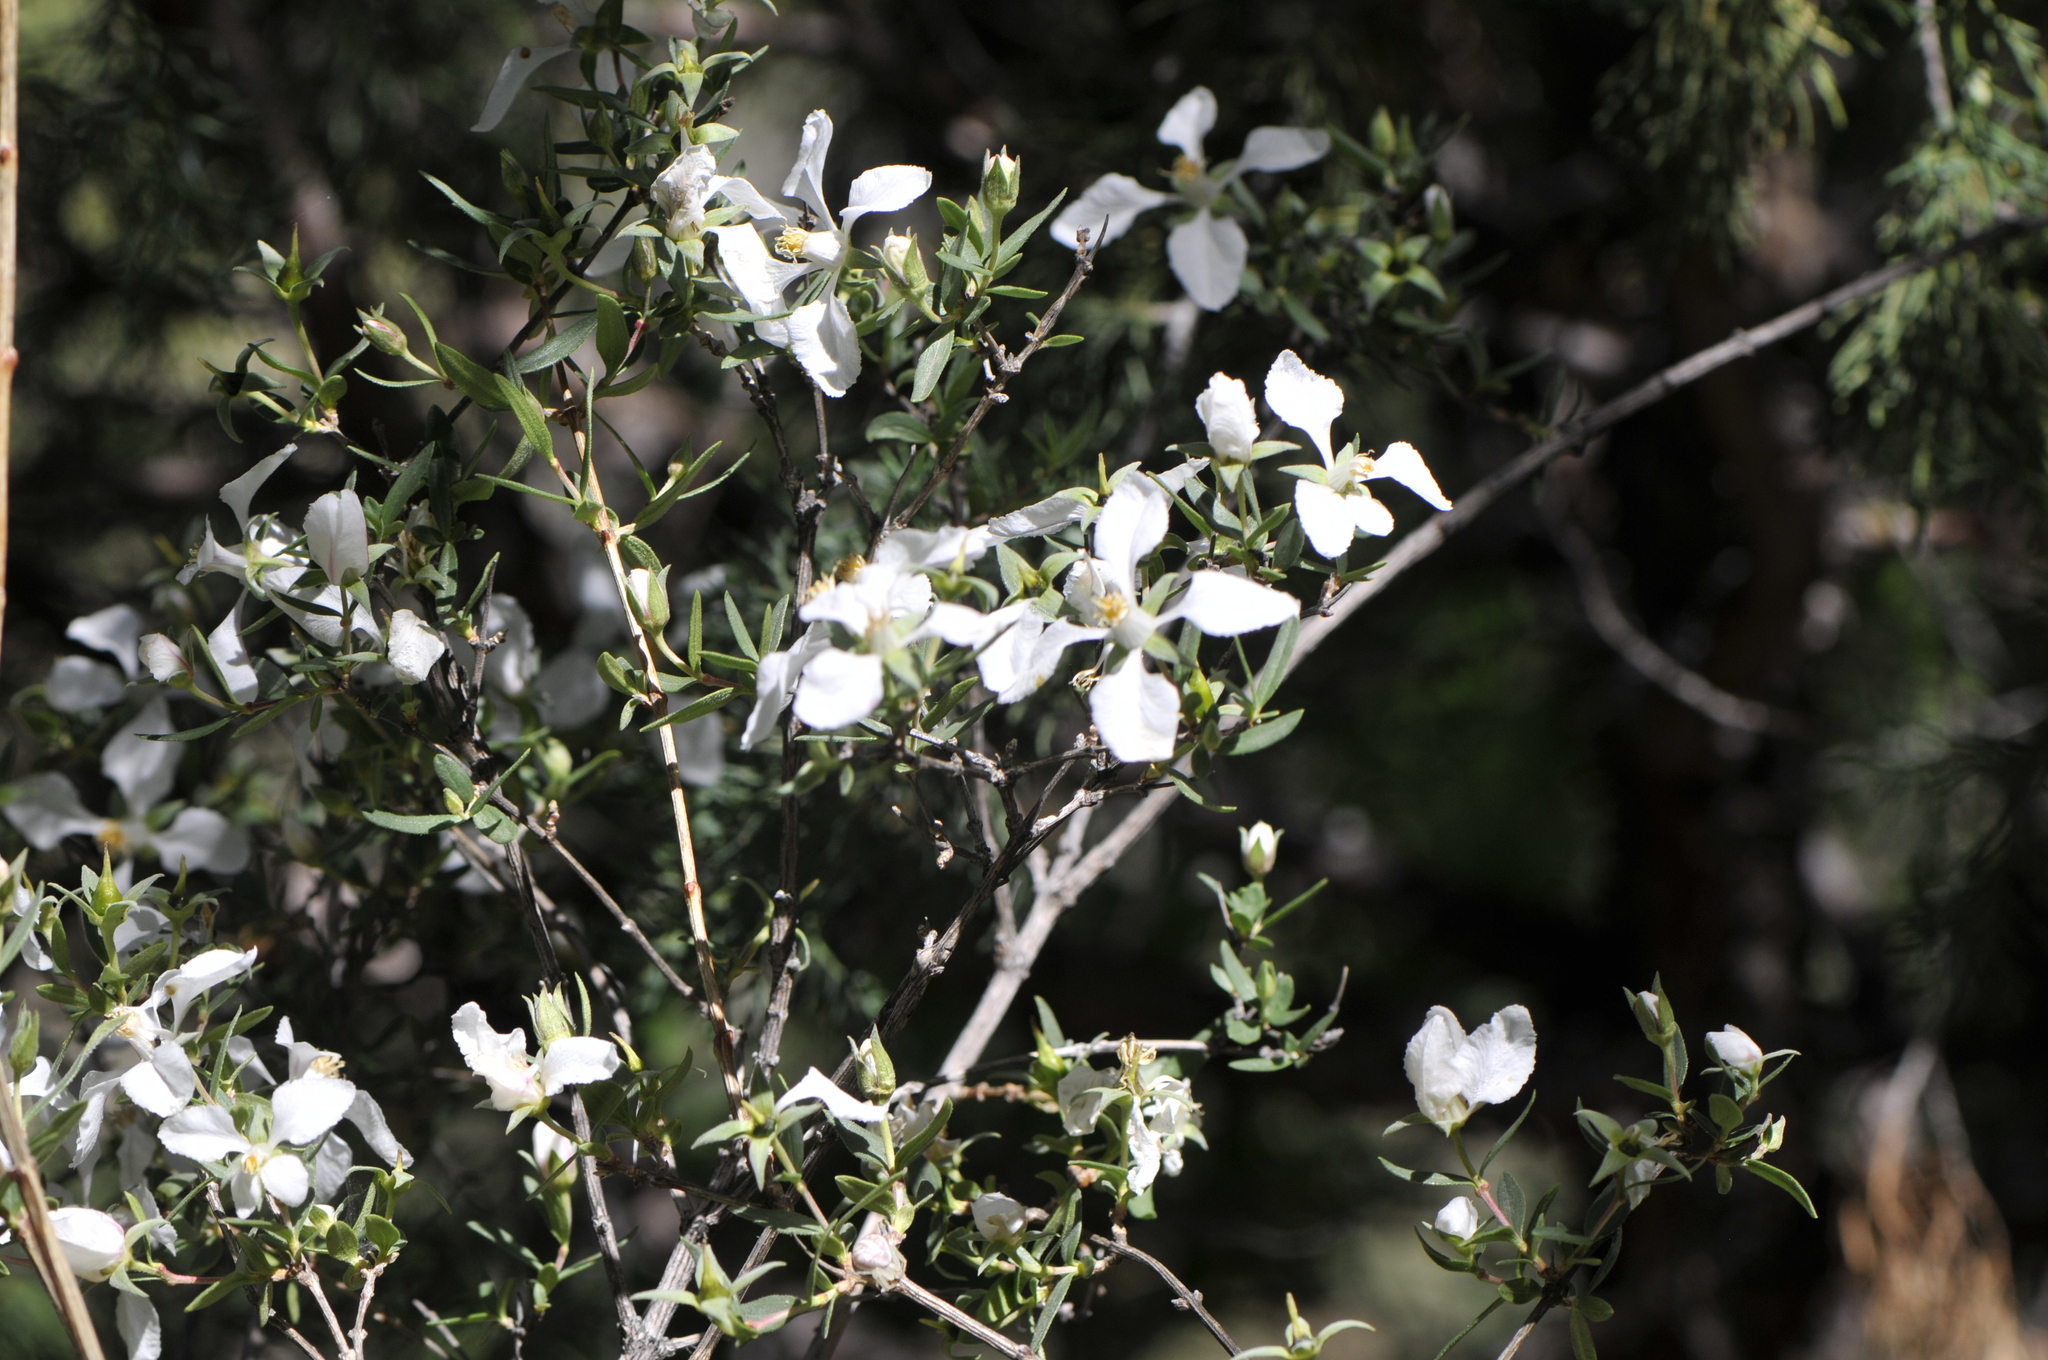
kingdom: Plantae
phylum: Tracheophyta
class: Magnoliopsida
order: Cornales
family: Hydrangeaceae
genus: Fendlera
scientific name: Fendlera rupicola
